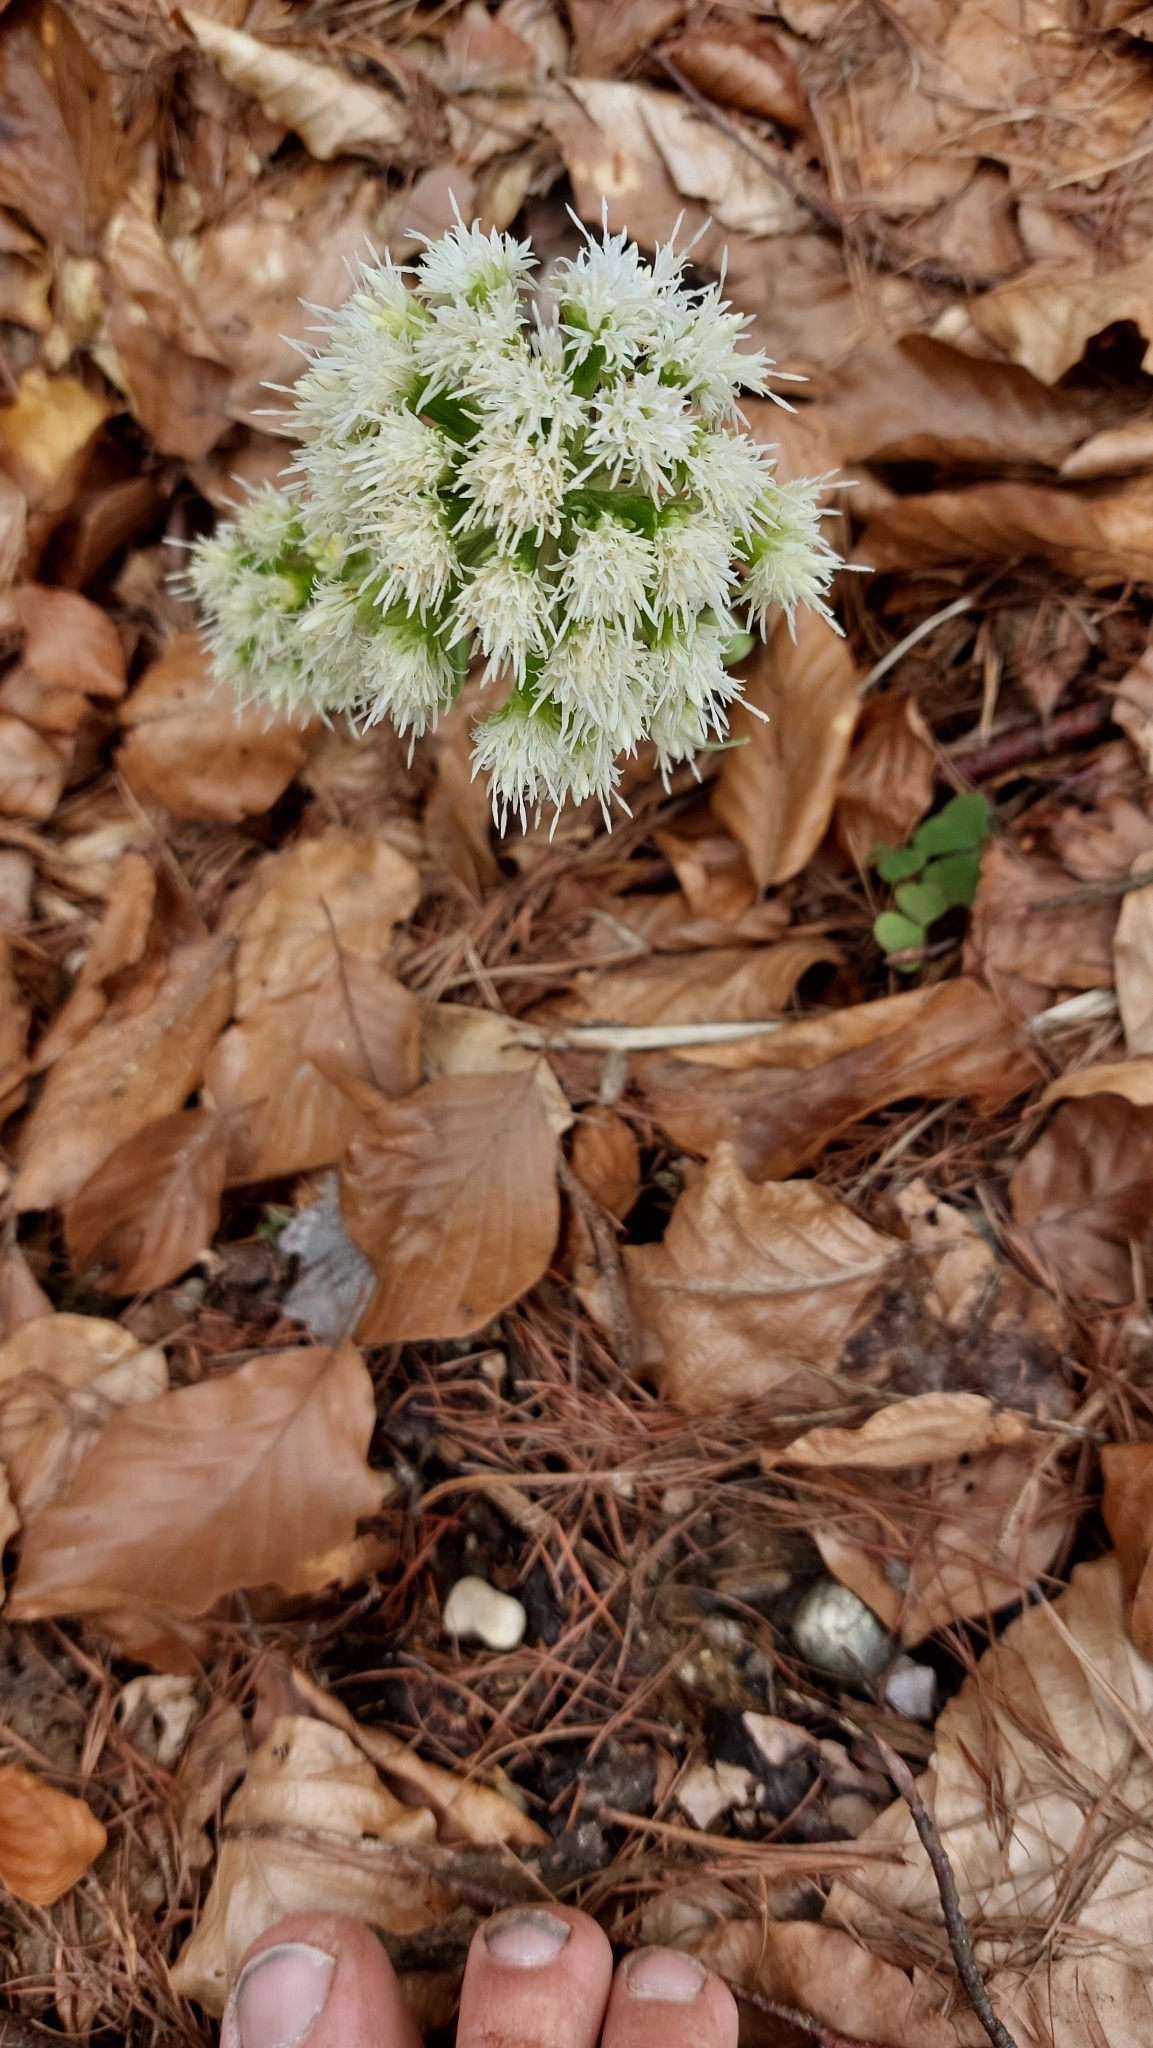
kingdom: Plantae
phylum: Tracheophyta
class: Magnoliopsida
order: Asterales
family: Asteraceae
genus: Petasites
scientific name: Petasites albus
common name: White butterbur
